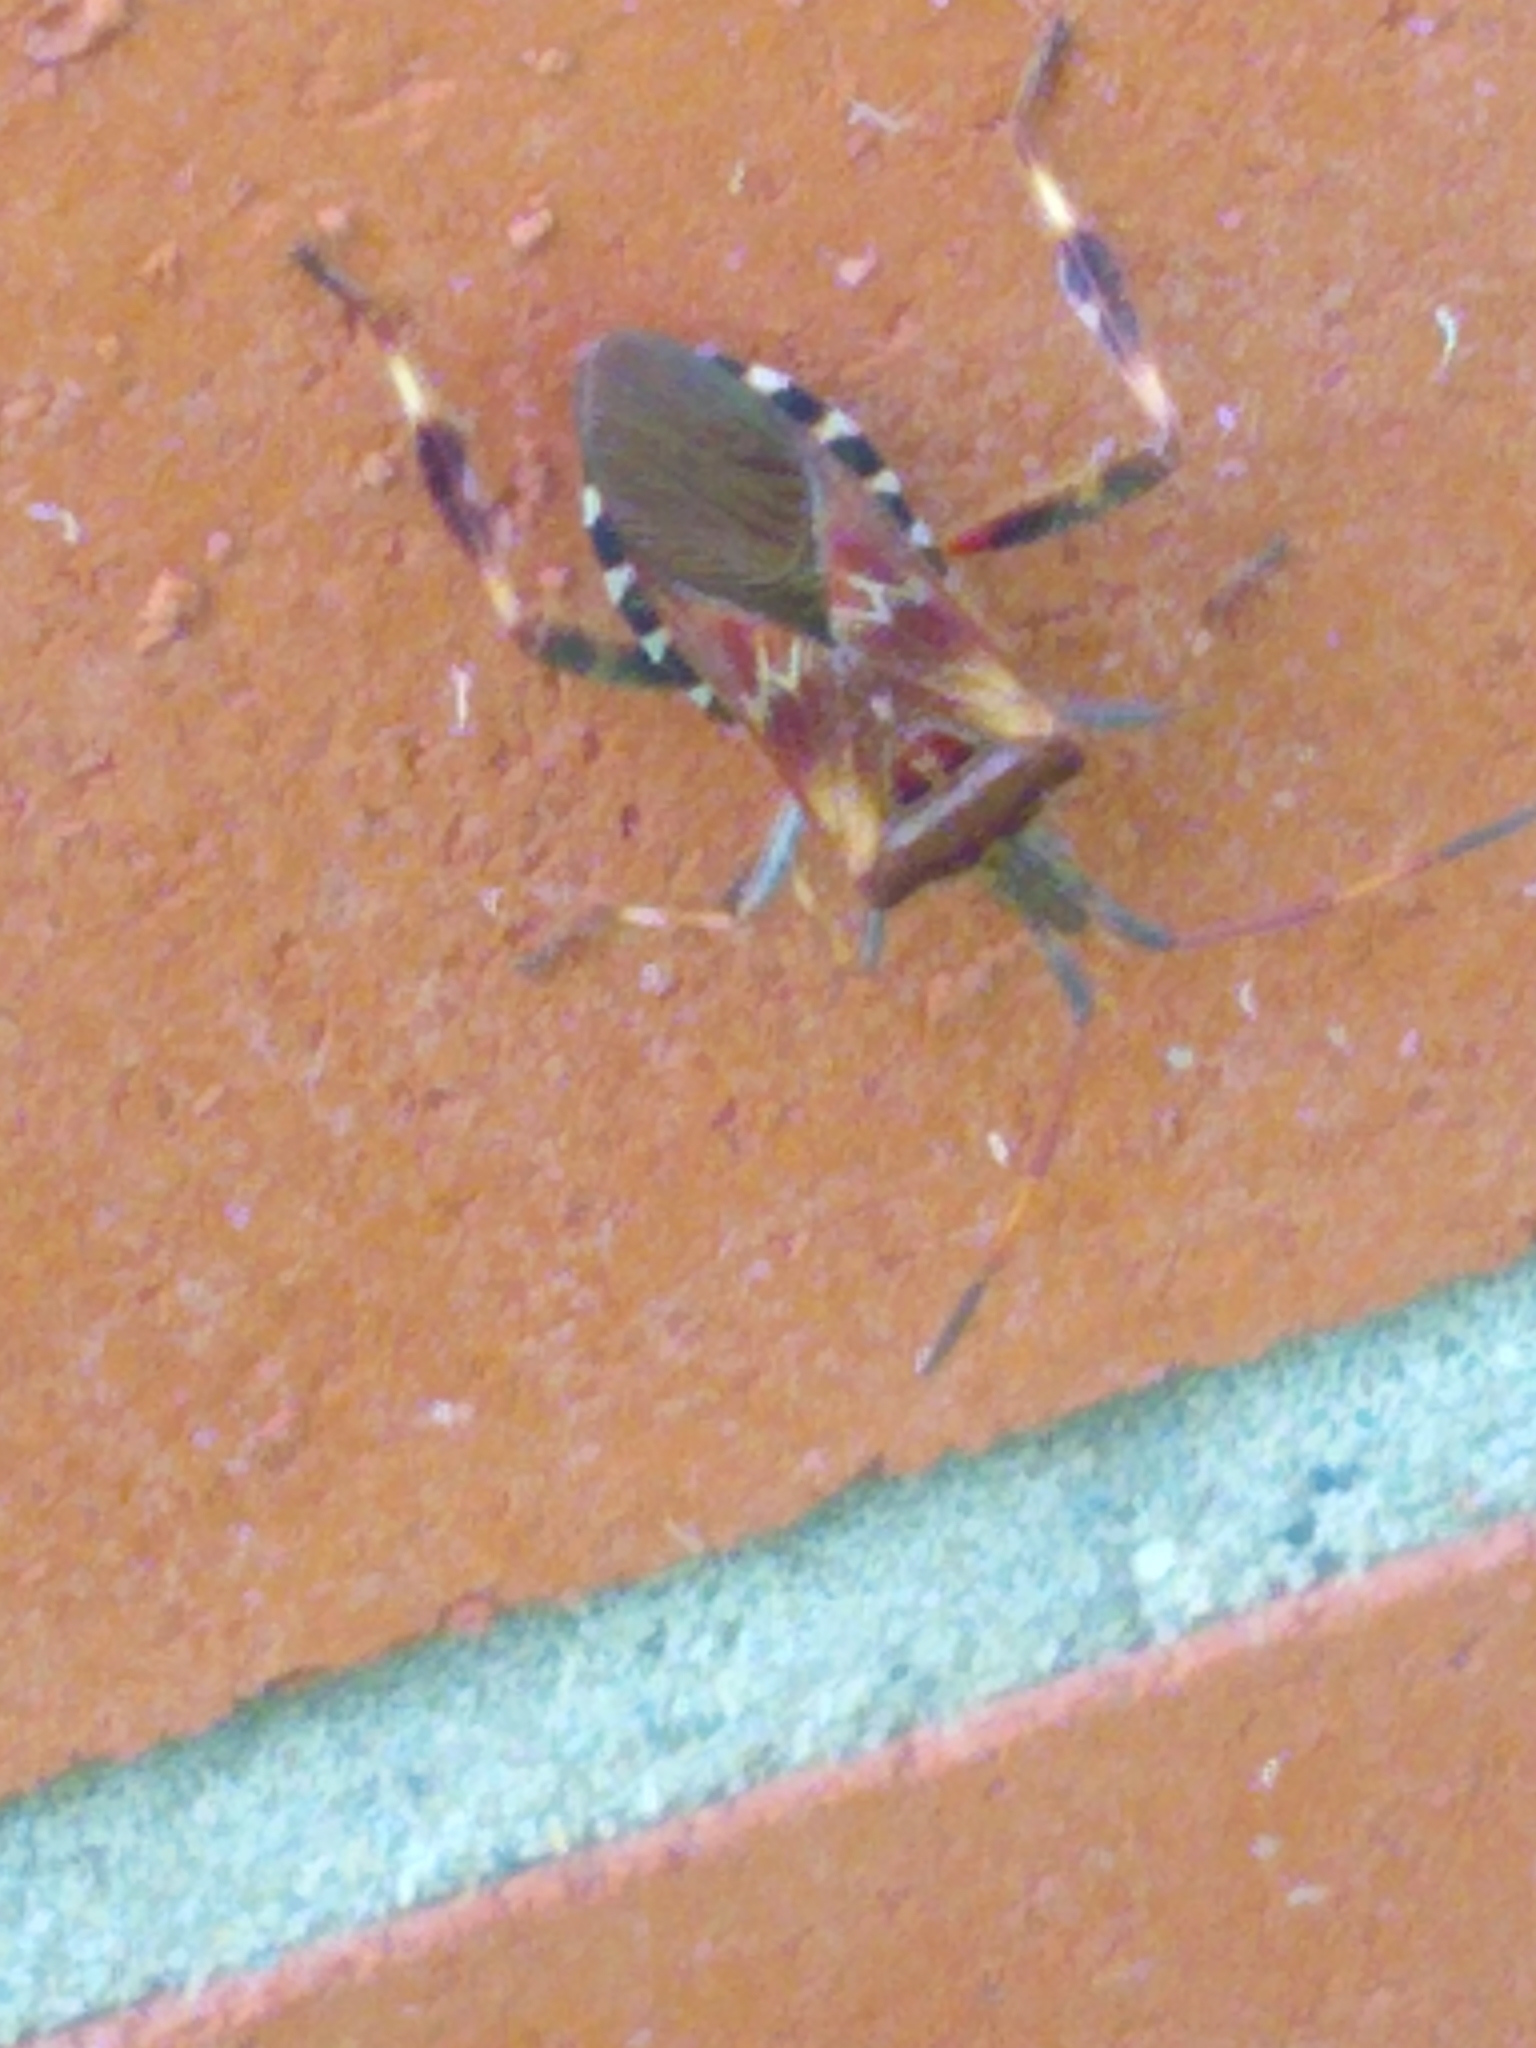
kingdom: Animalia
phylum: Arthropoda
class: Insecta
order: Hemiptera
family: Coreidae
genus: Leptoglossus
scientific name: Leptoglossus occidentalis
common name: Western conifer-seed bug
